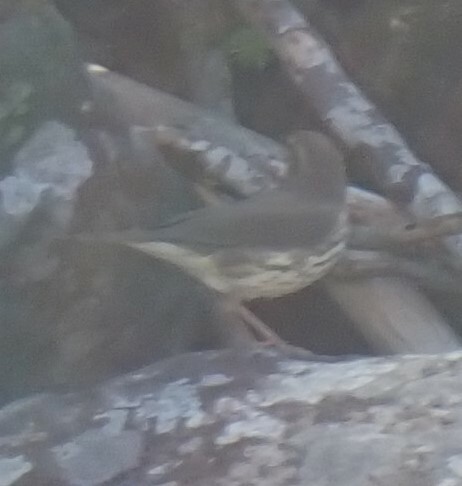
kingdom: Animalia
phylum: Chordata
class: Aves
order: Passeriformes
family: Parulidae
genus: Parkesia
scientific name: Parkesia noveboracensis
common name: Northern waterthrush
